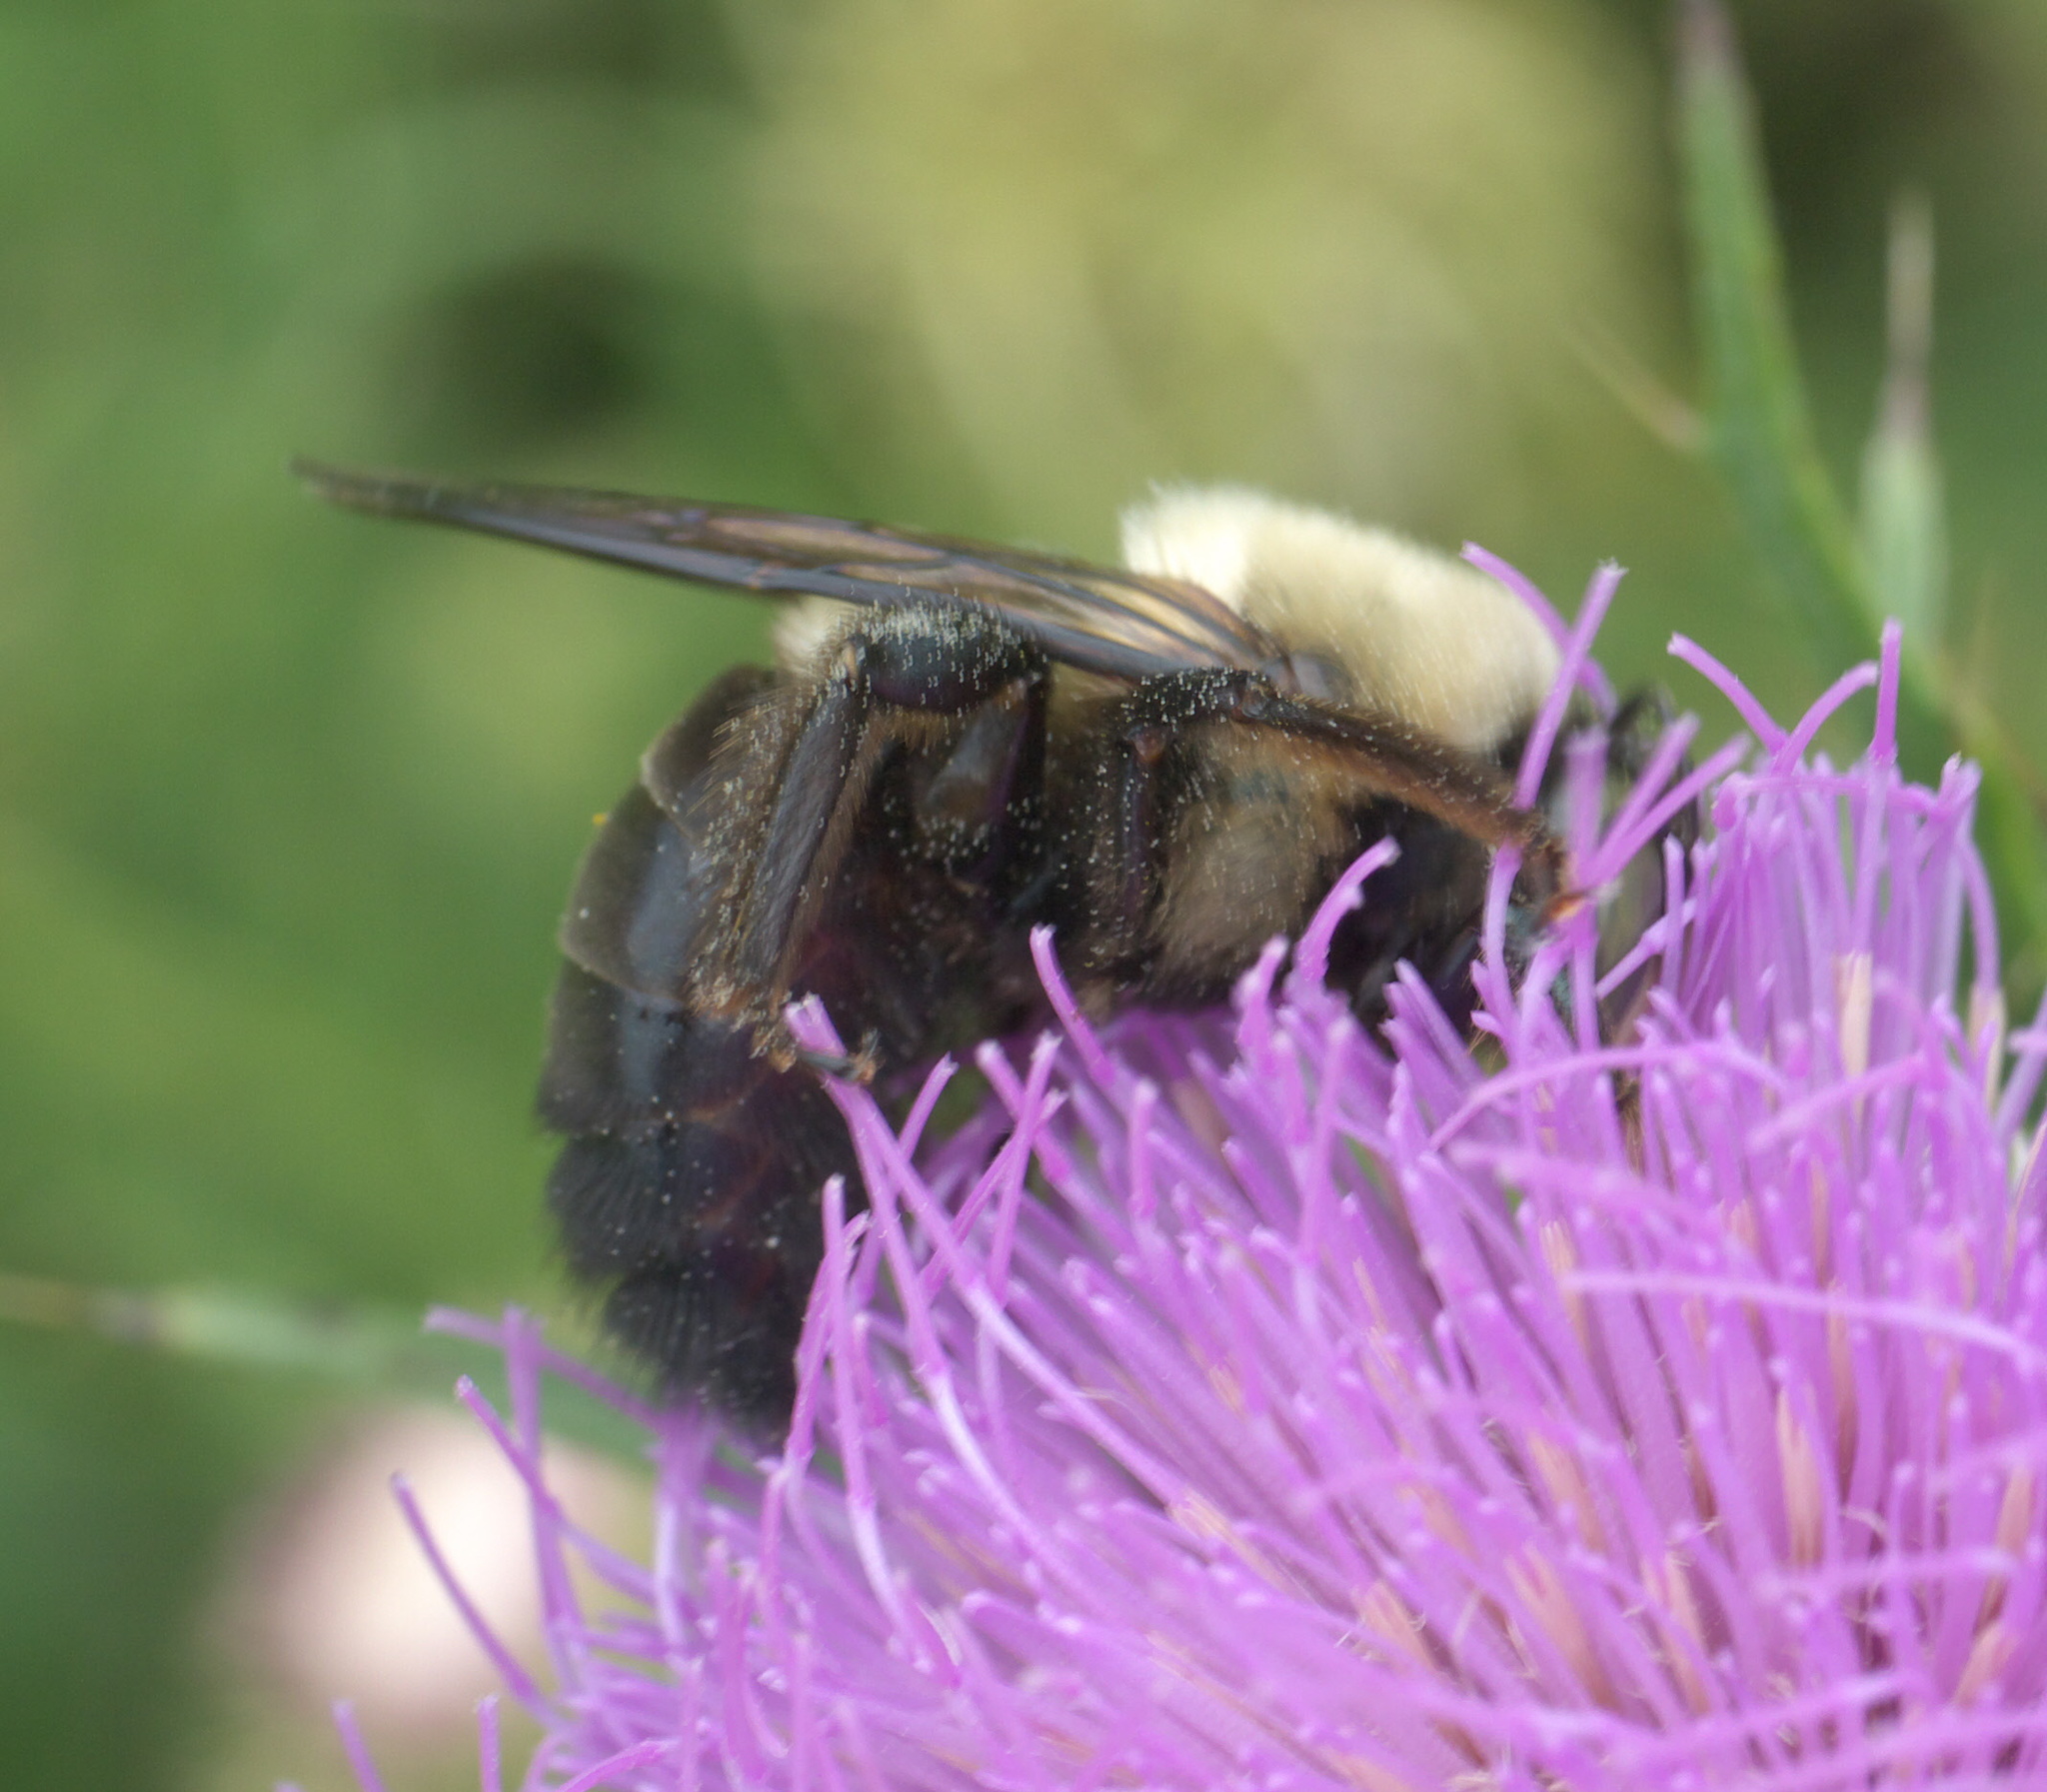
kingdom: Animalia
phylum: Arthropoda
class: Insecta
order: Hymenoptera
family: Apidae
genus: Xylocopa
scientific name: Xylocopa virginica
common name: Carpenter bee
